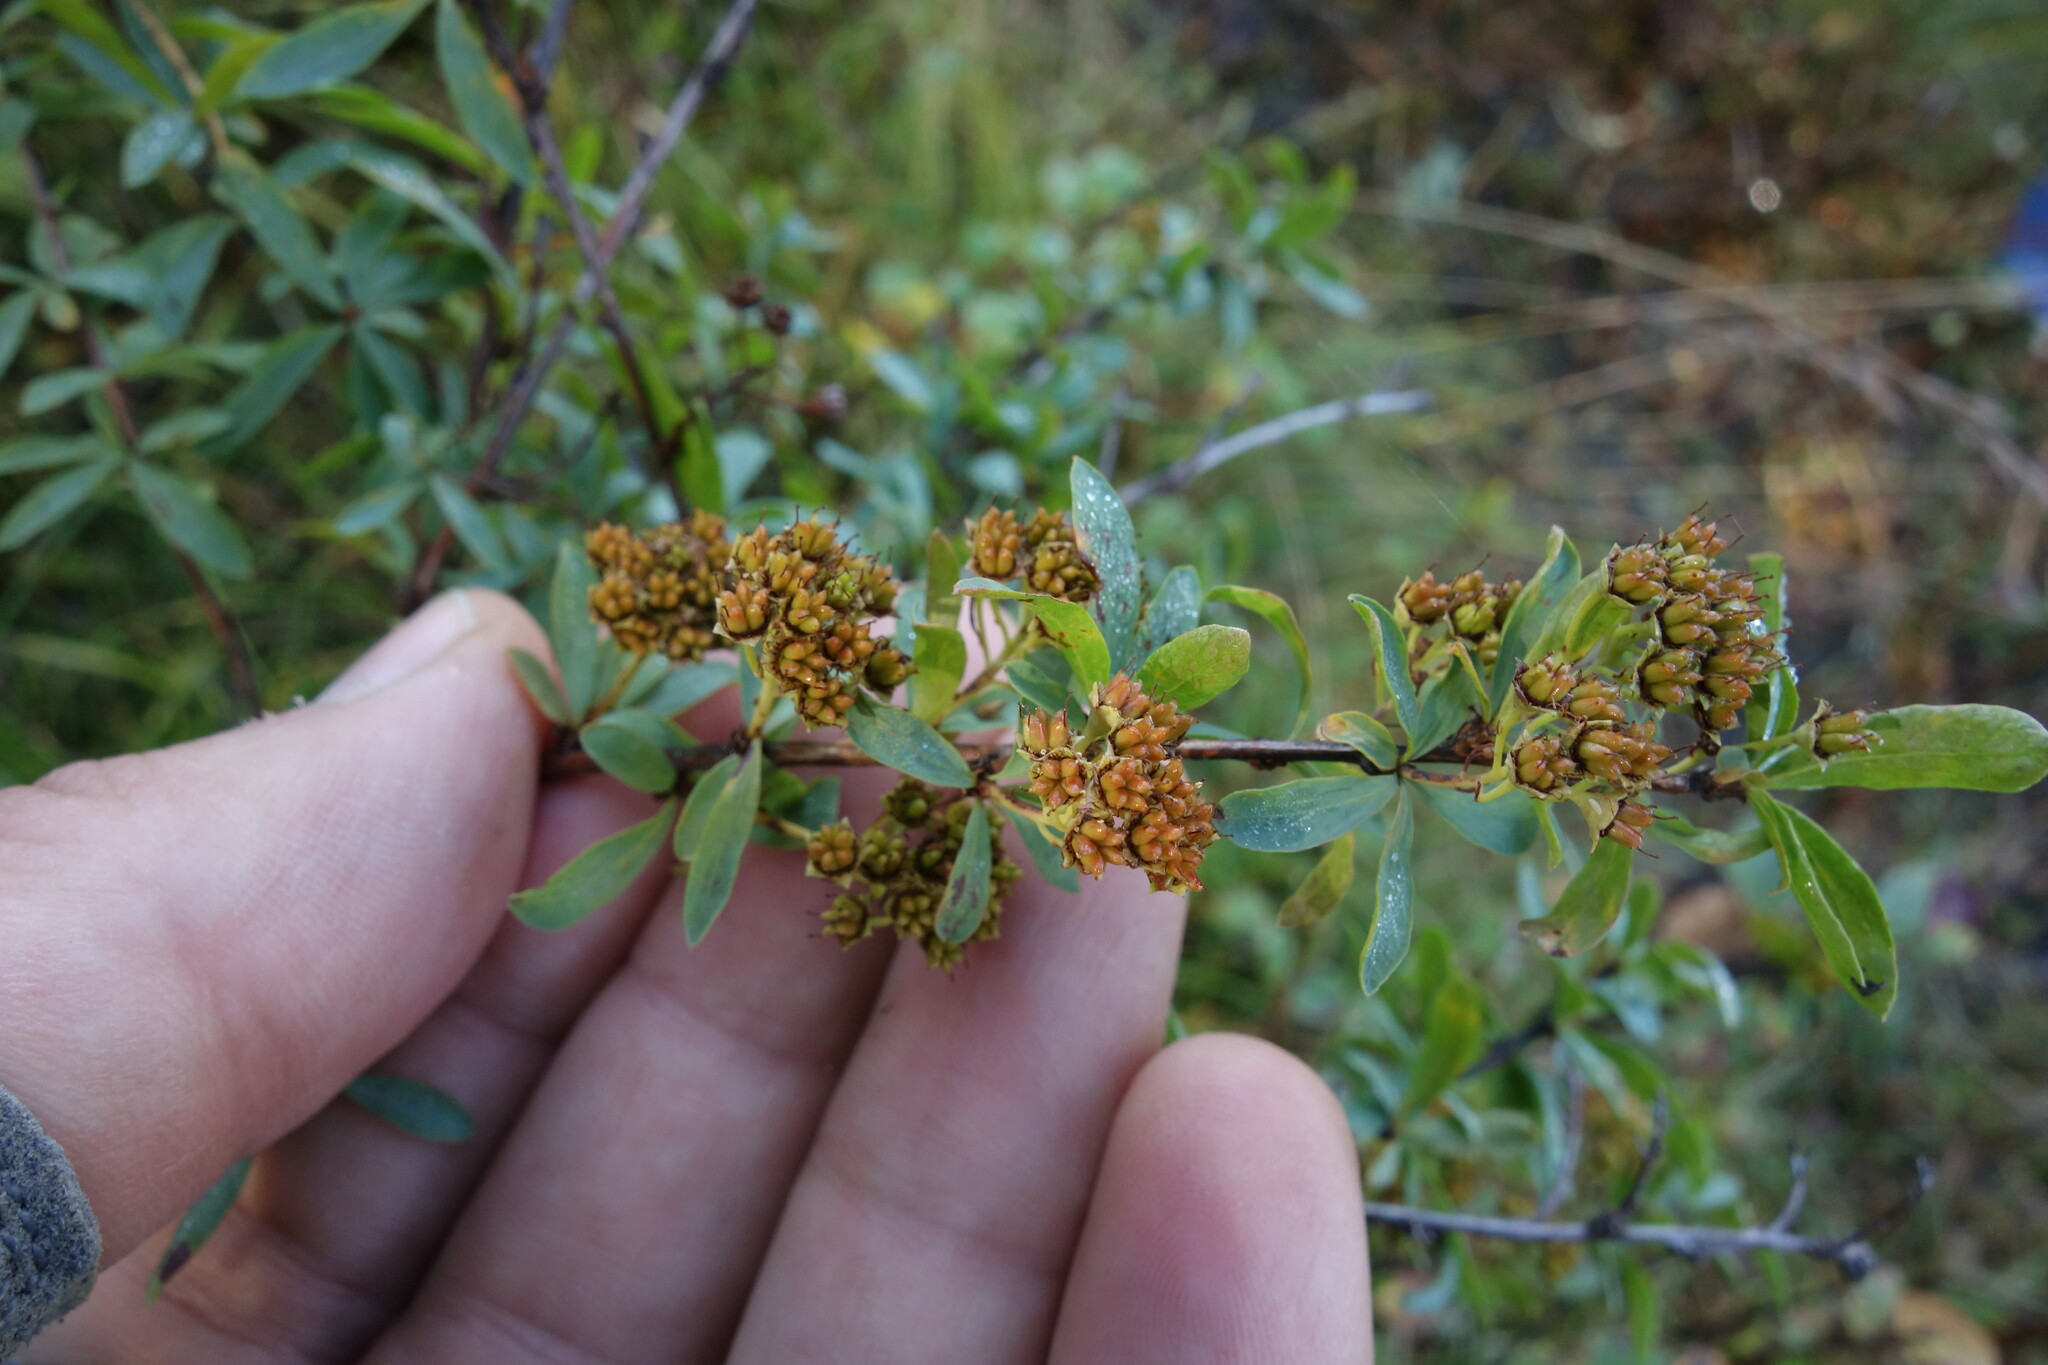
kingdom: Plantae
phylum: Tracheophyta
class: Magnoliopsida
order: Rosales
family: Rosaceae
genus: Spiraea
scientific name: Spiraea alpina
